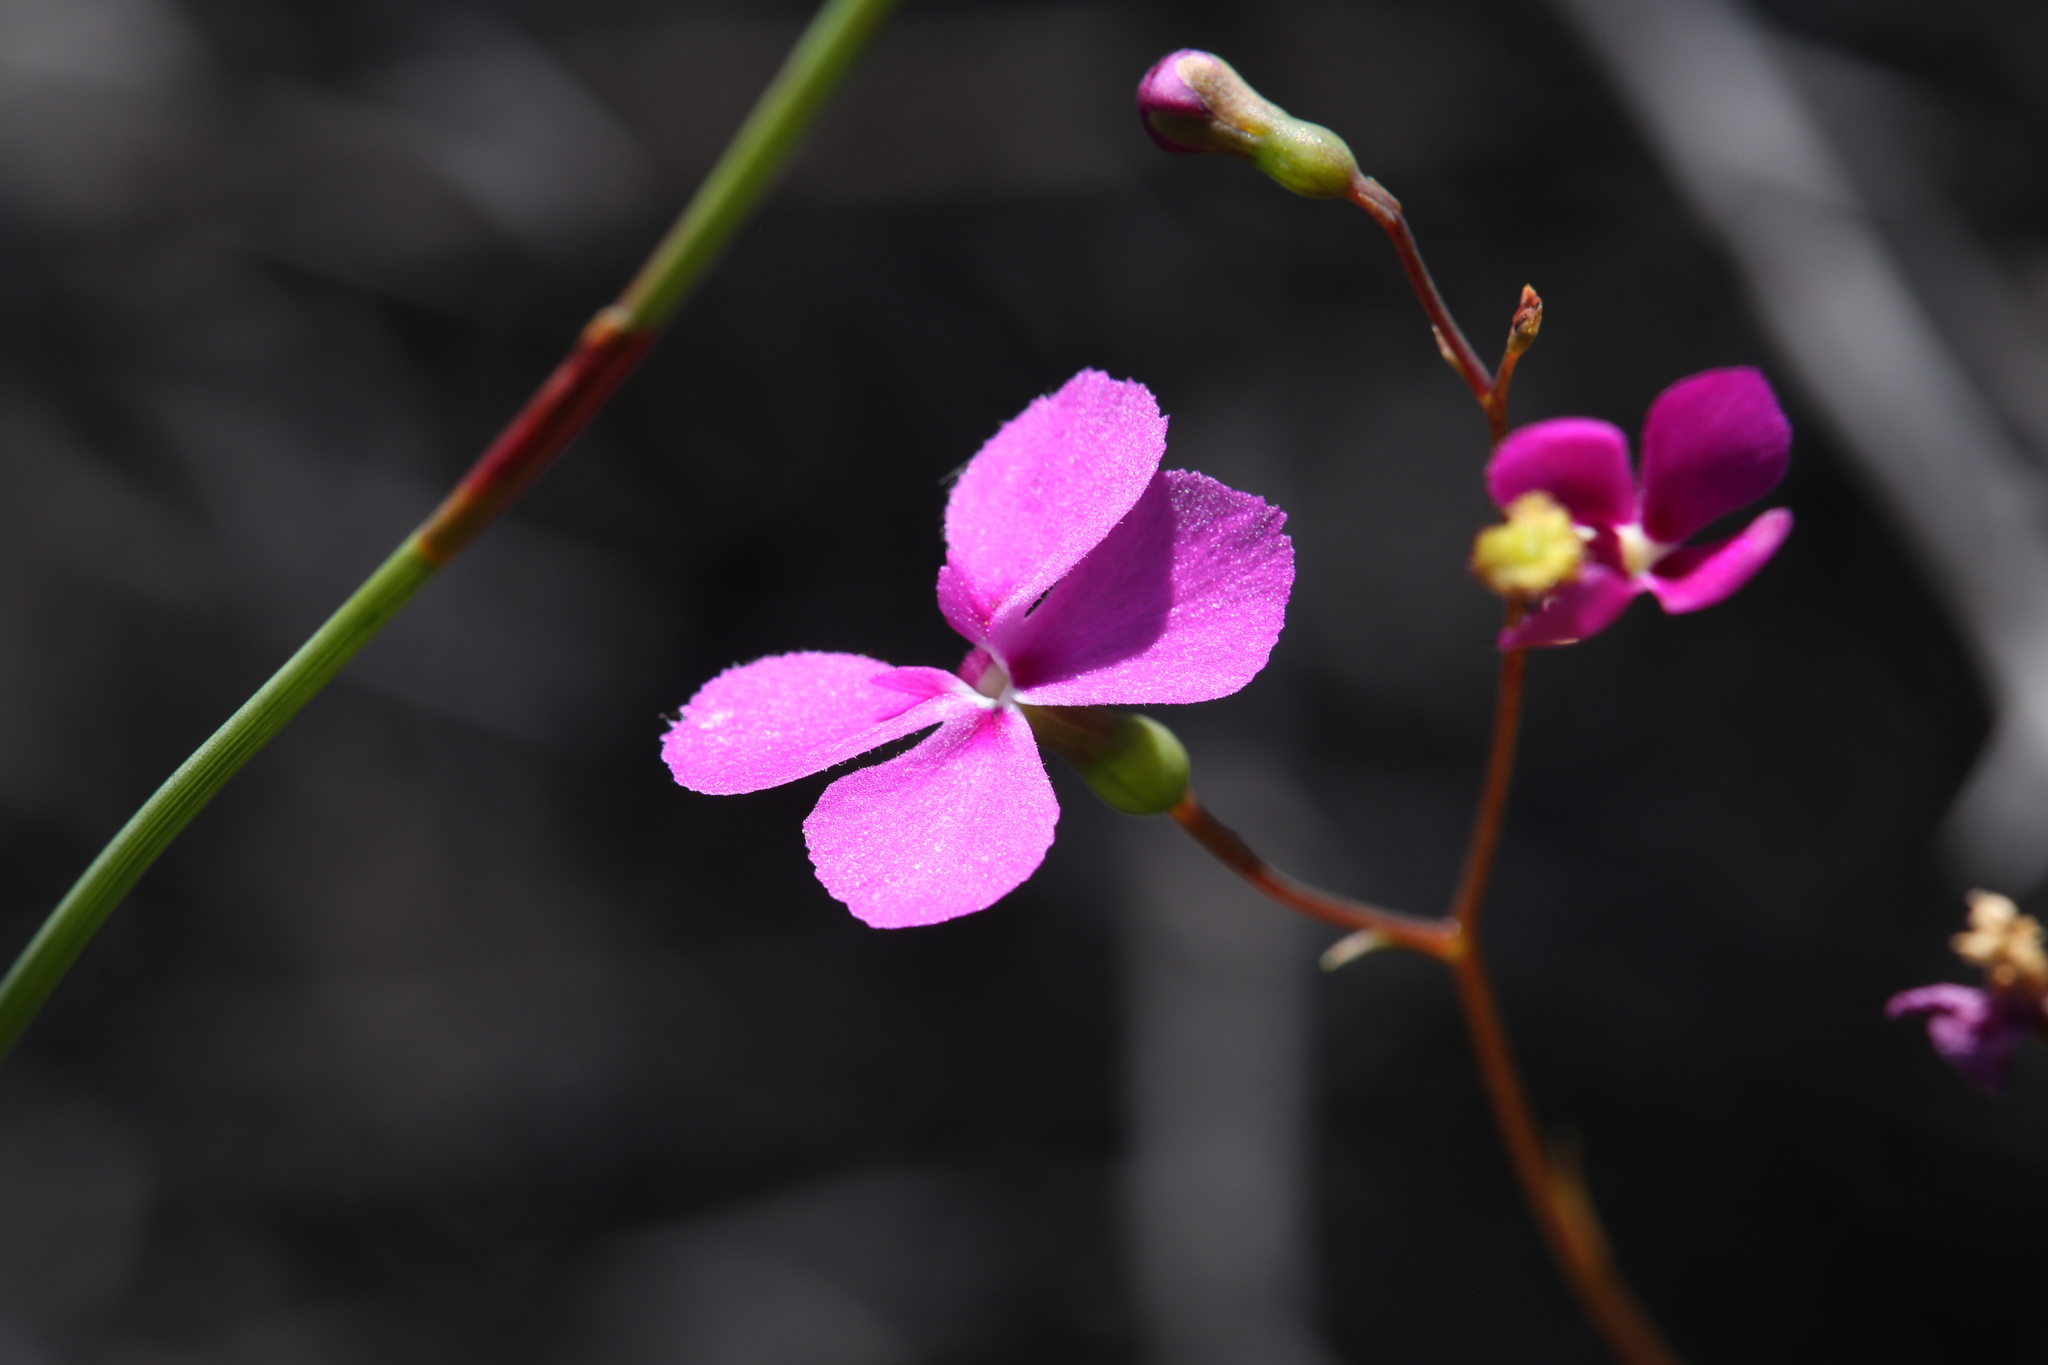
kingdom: Plantae
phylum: Tracheophyta
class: Magnoliopsida
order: Asterales
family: Stylidiaceae
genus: Stylidium
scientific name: Stylidium scandens
